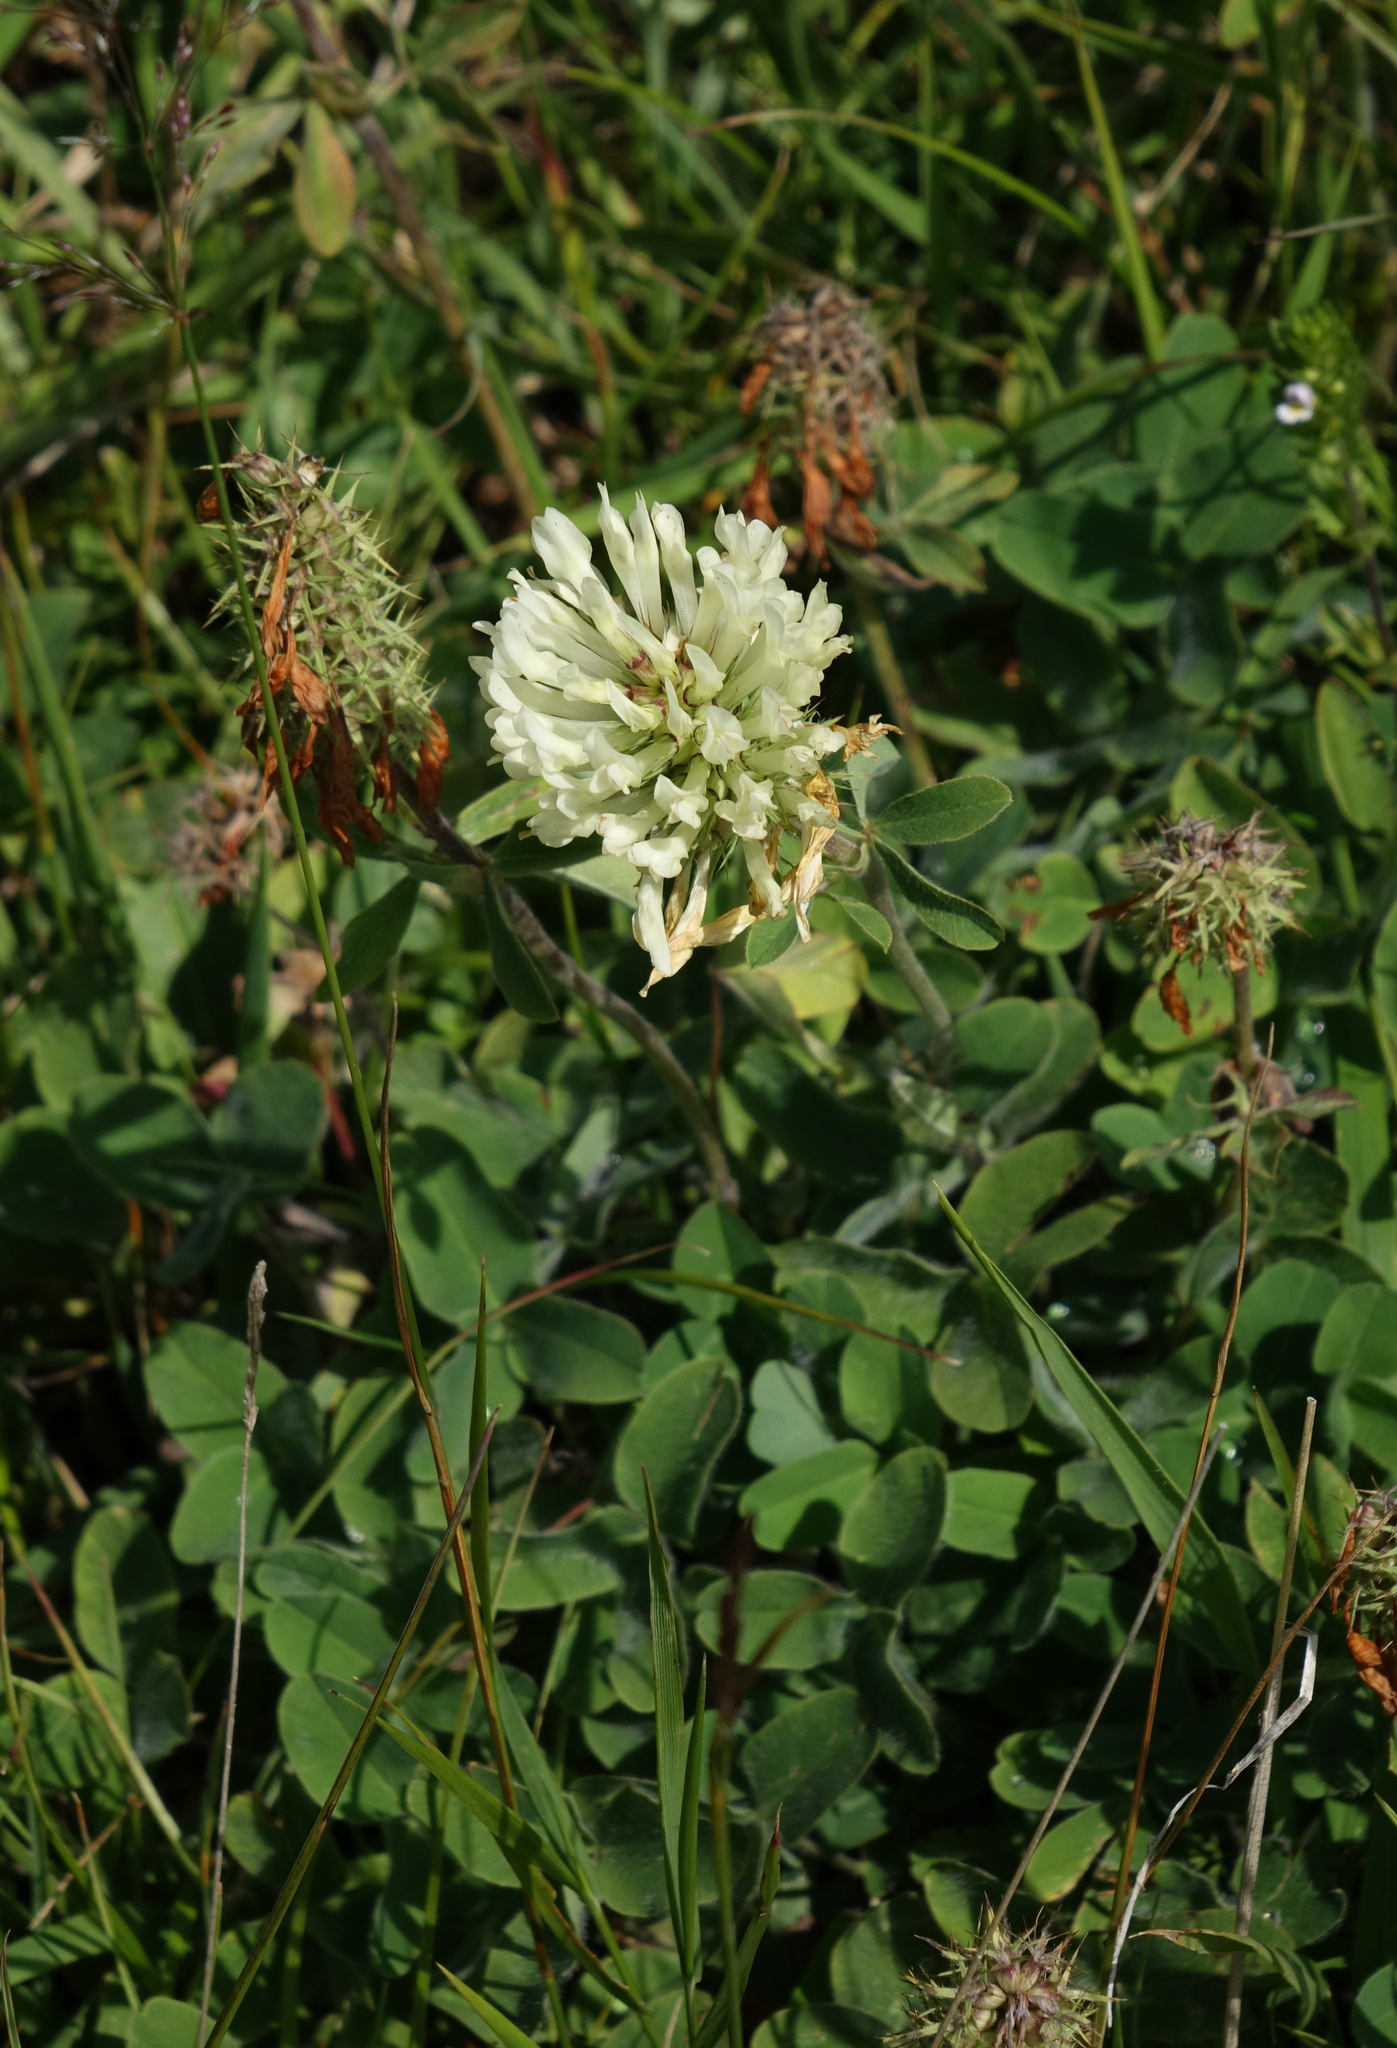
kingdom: Plantae
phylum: Tracheophyta
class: Magnoliopsida
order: Fabales
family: Fabaceae
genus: Trifolium
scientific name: Trifolium canescens
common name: Graying clover
